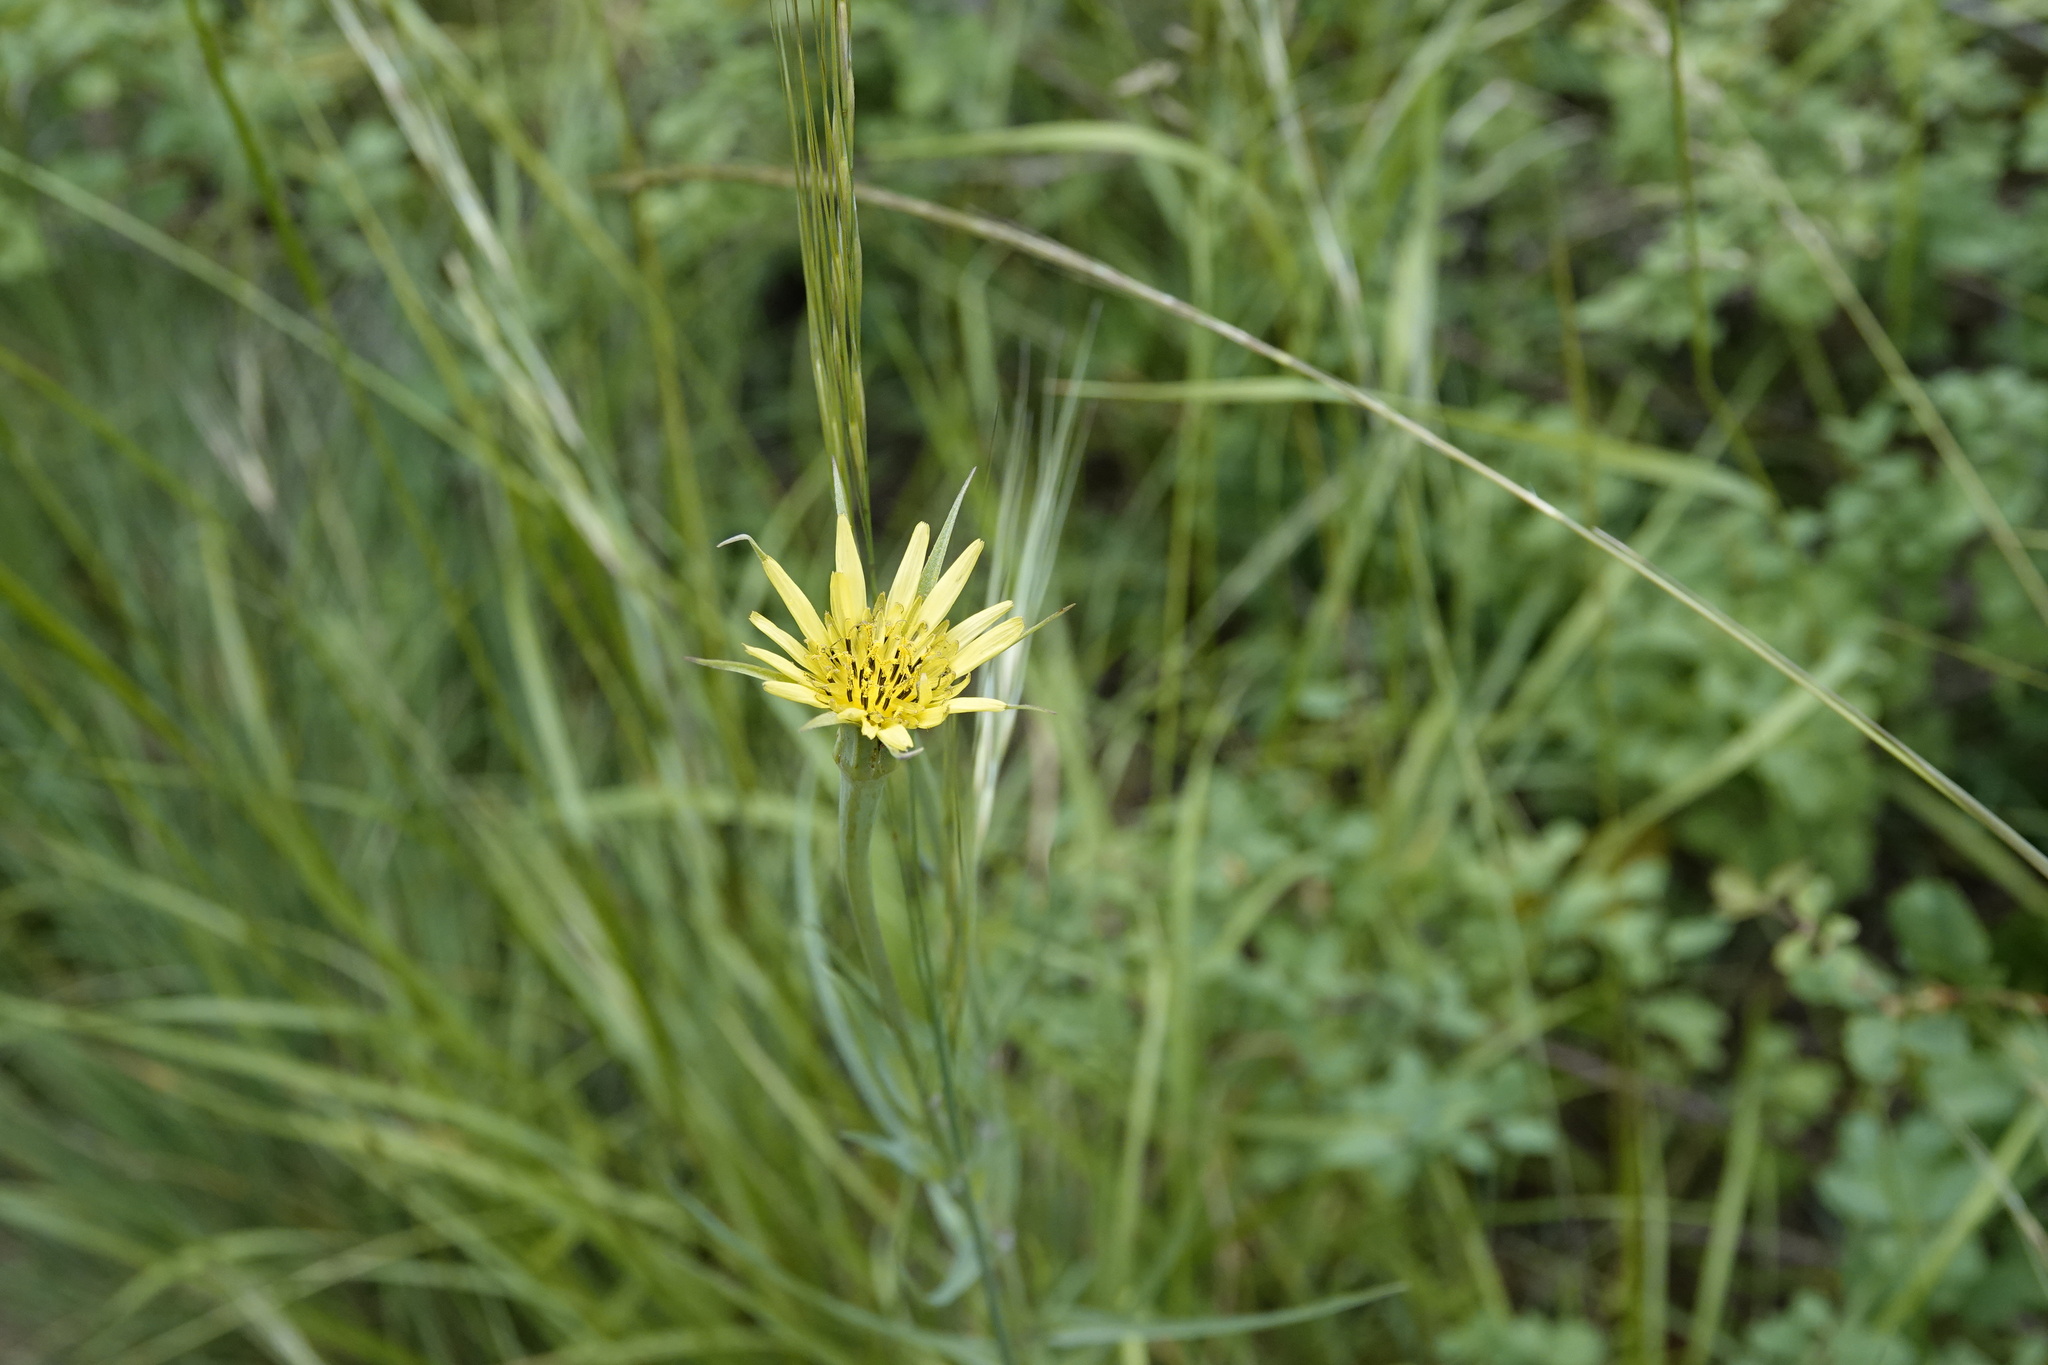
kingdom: Plantae
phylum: Tracheophyta
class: Magnoliopsida
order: Asterales
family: Asteraceae
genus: Tragopogon
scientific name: Tragopogon dubius
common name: Yellow salsify
